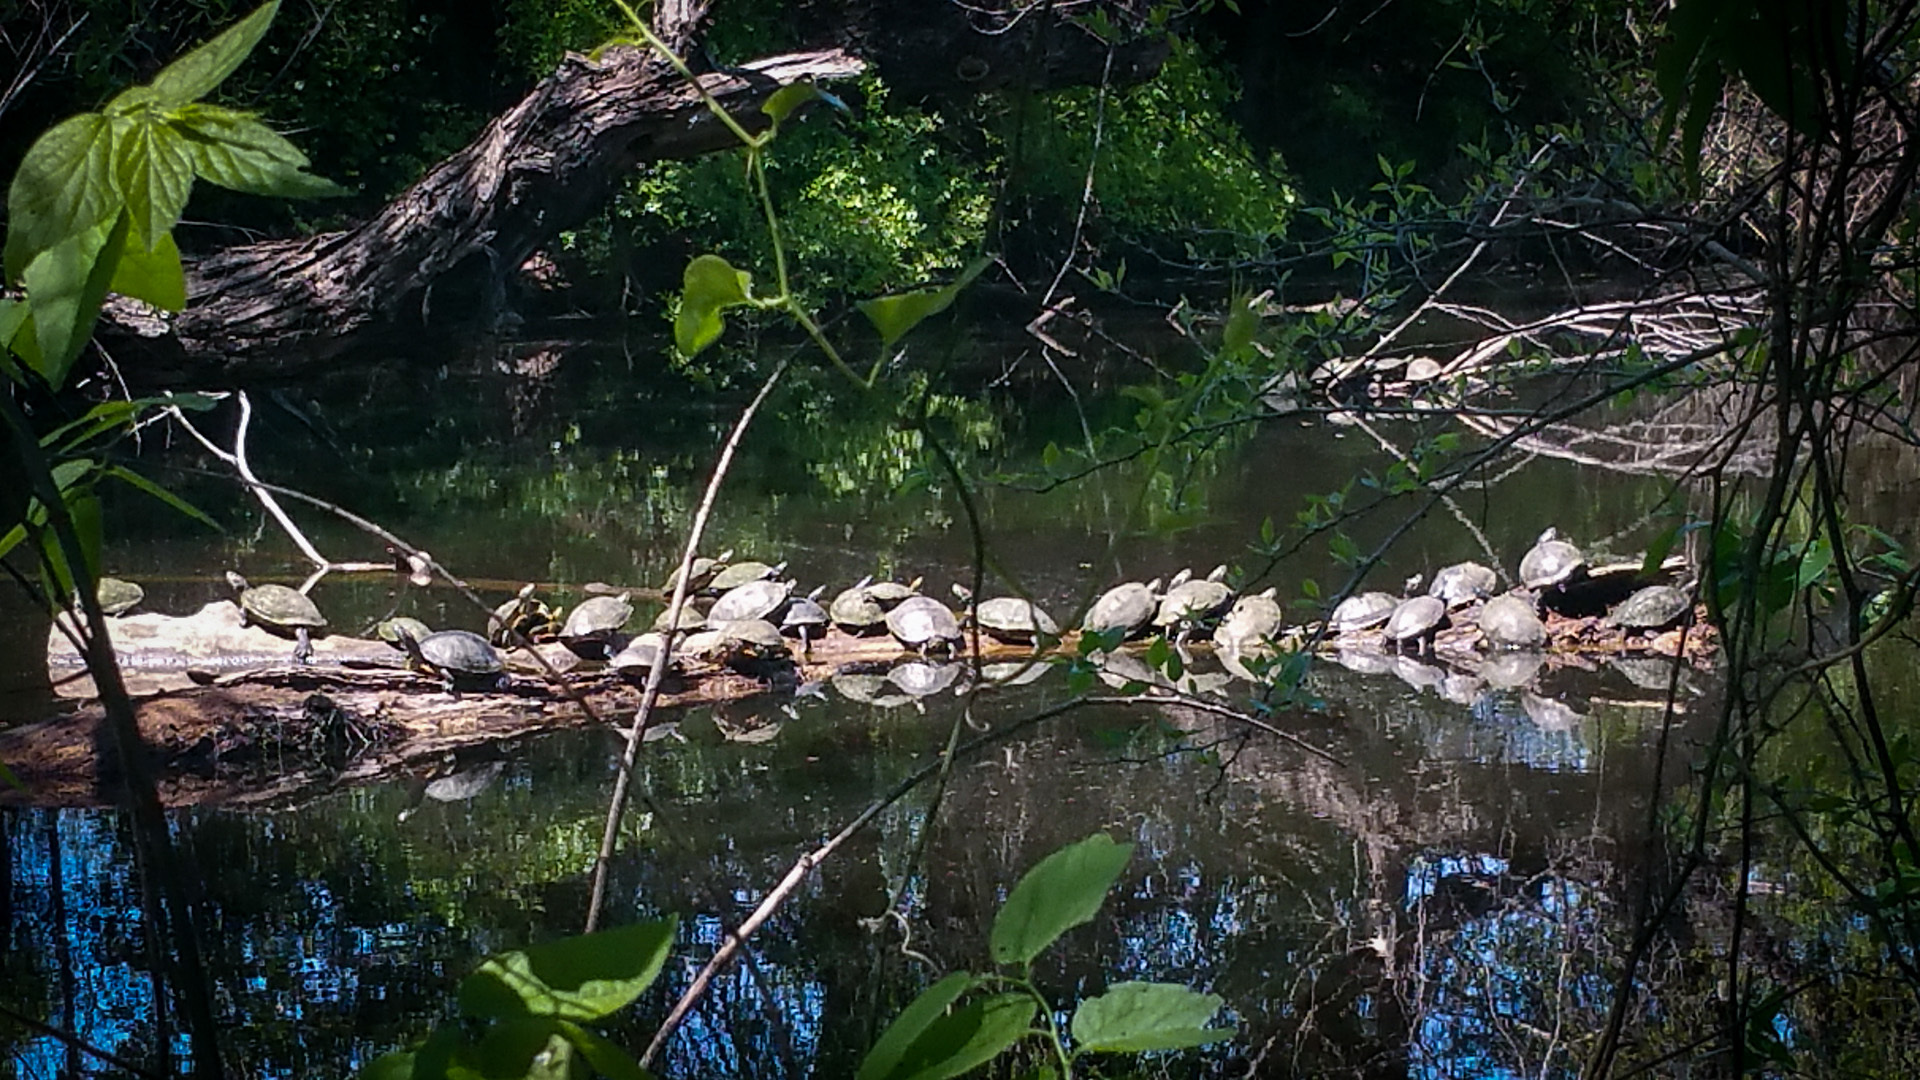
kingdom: Animalia
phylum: Chordata
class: Testudines
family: Emydidae
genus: Trachemys
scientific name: Trachemys scripta
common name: Slider
